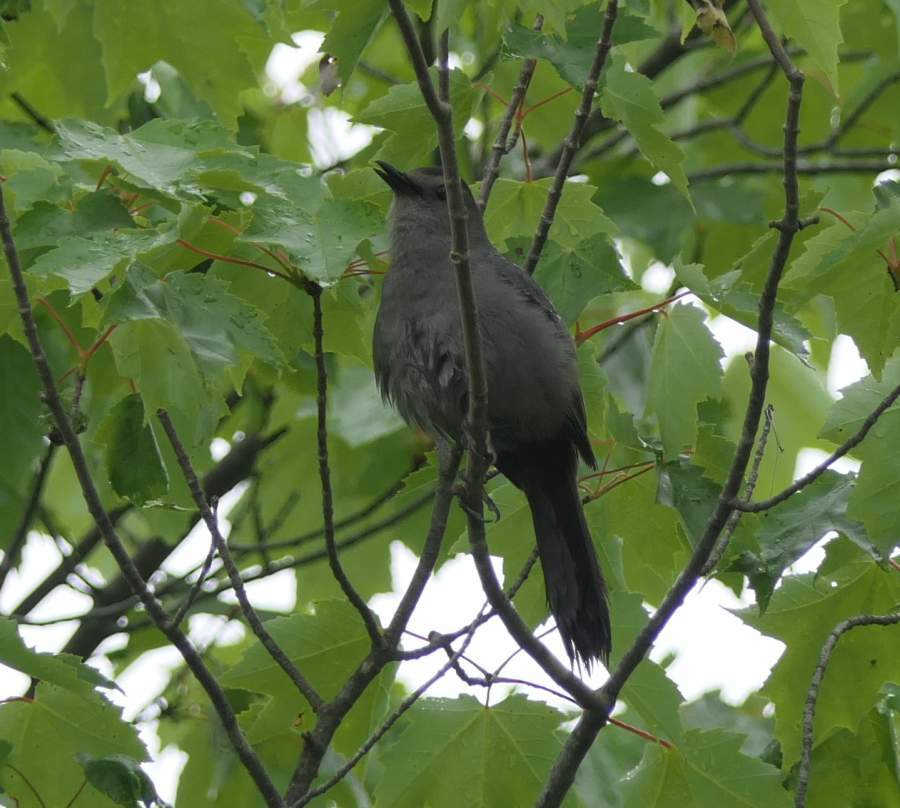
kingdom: Animalia
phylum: Chordata
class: Aves
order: Passeriformes
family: Mimidae
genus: Dumetella
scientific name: Dumetella carolinensis
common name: Gray catbird
